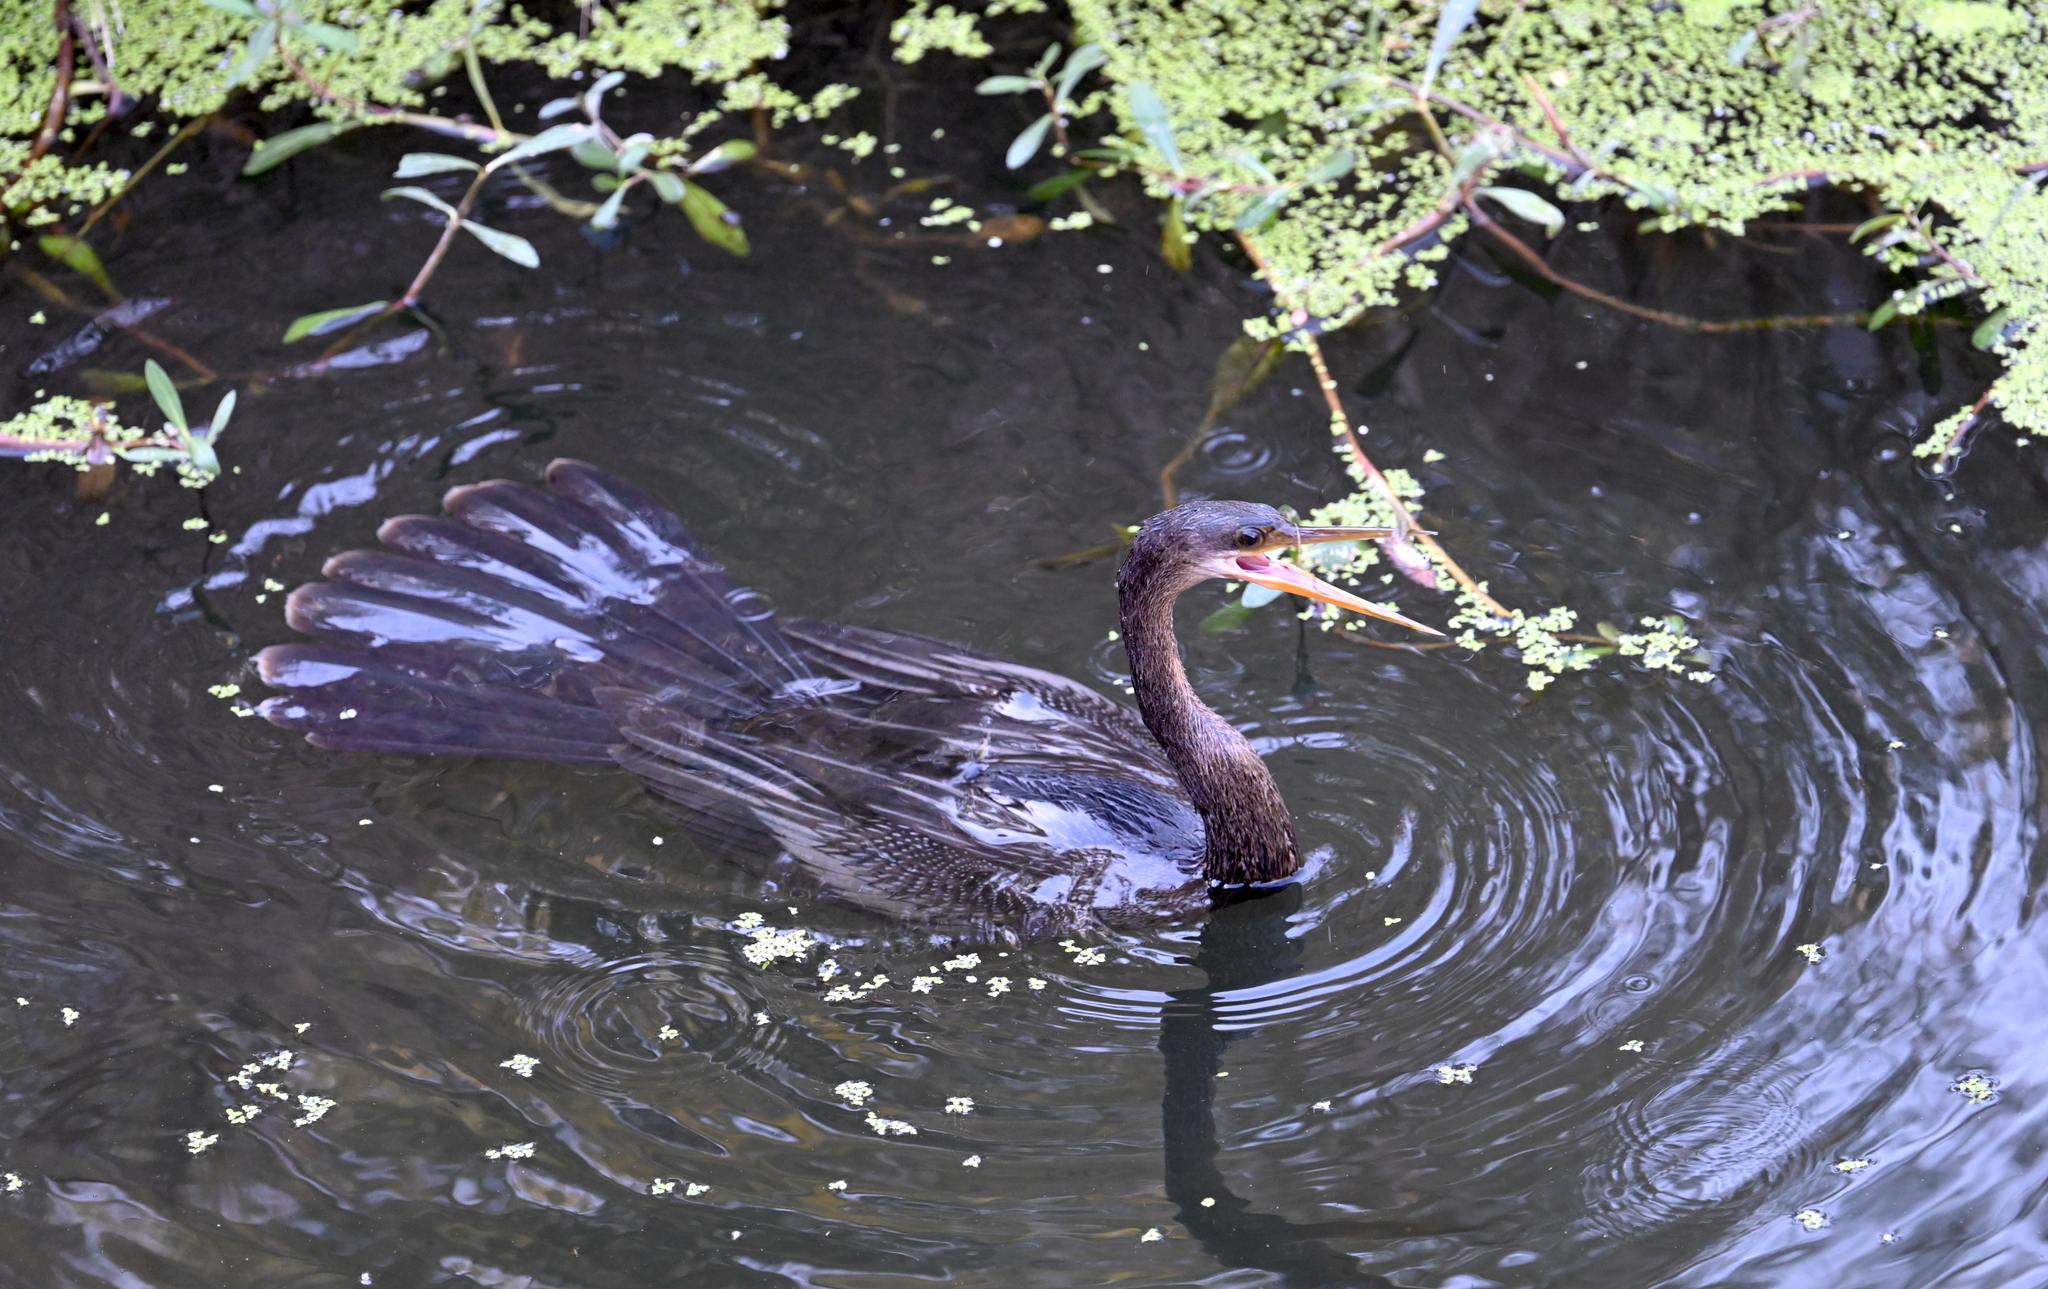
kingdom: Animalia
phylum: Chordata
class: Aves
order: Suliformes
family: Anhingidae
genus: Anhinga
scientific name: Anhinga anhinga
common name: Anhinga
